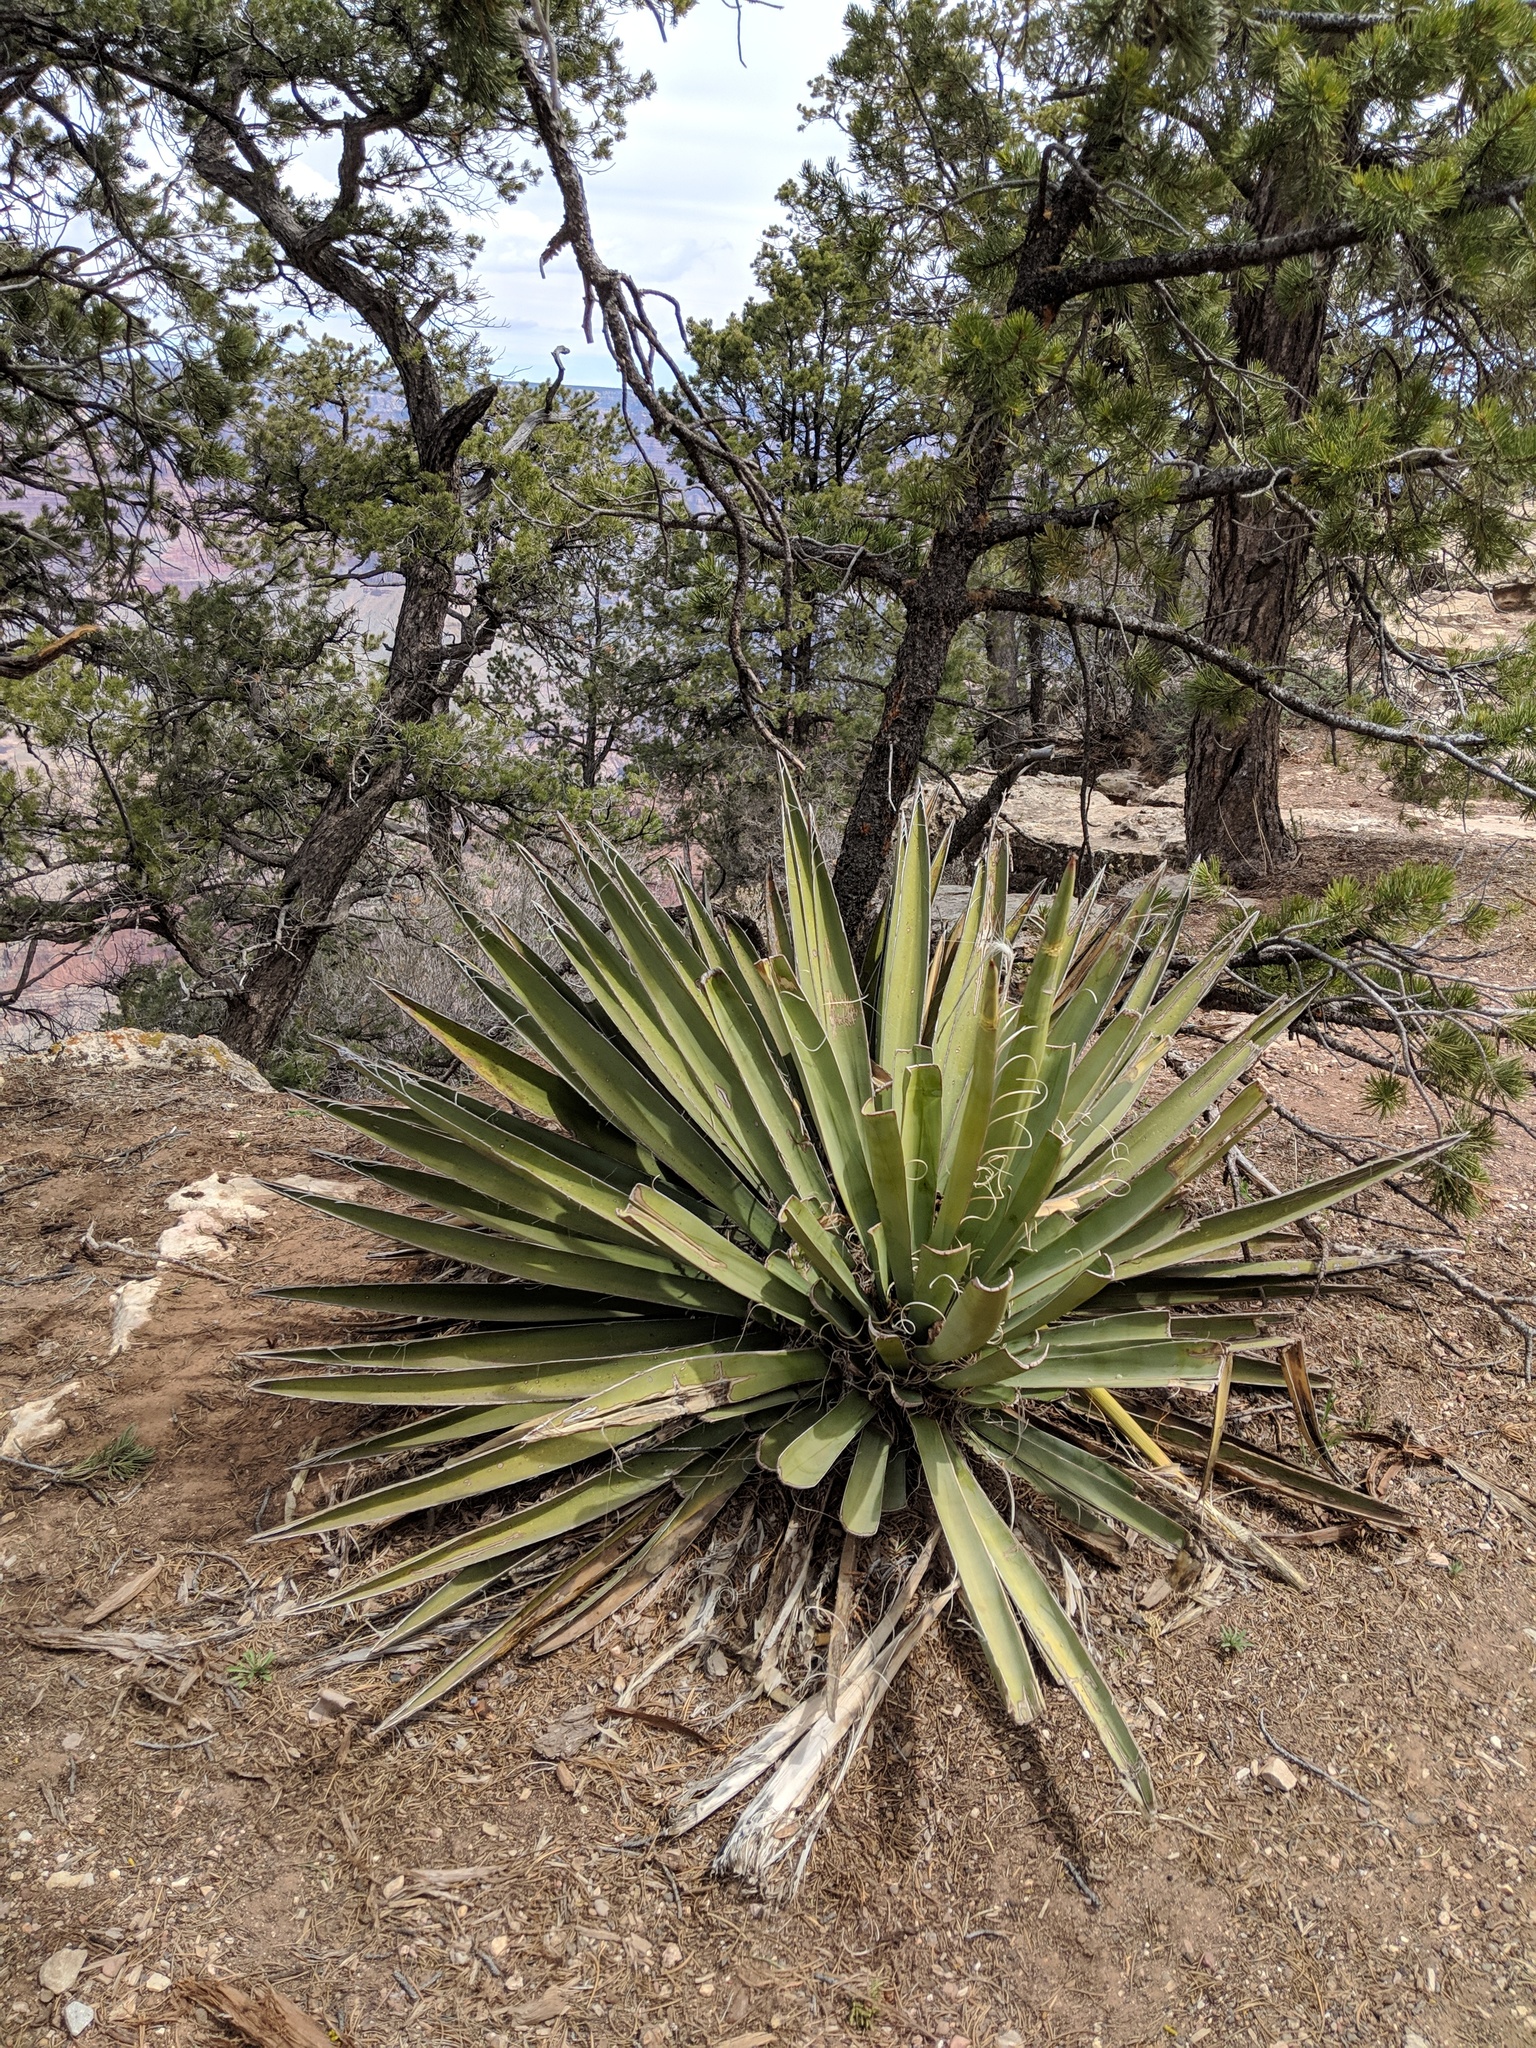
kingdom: Plantae
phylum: Tracheophyta
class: Liliopsida
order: Asparagales
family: Asparagaceae
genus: Yucca
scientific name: Yucca baccata
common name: Banana yucca
